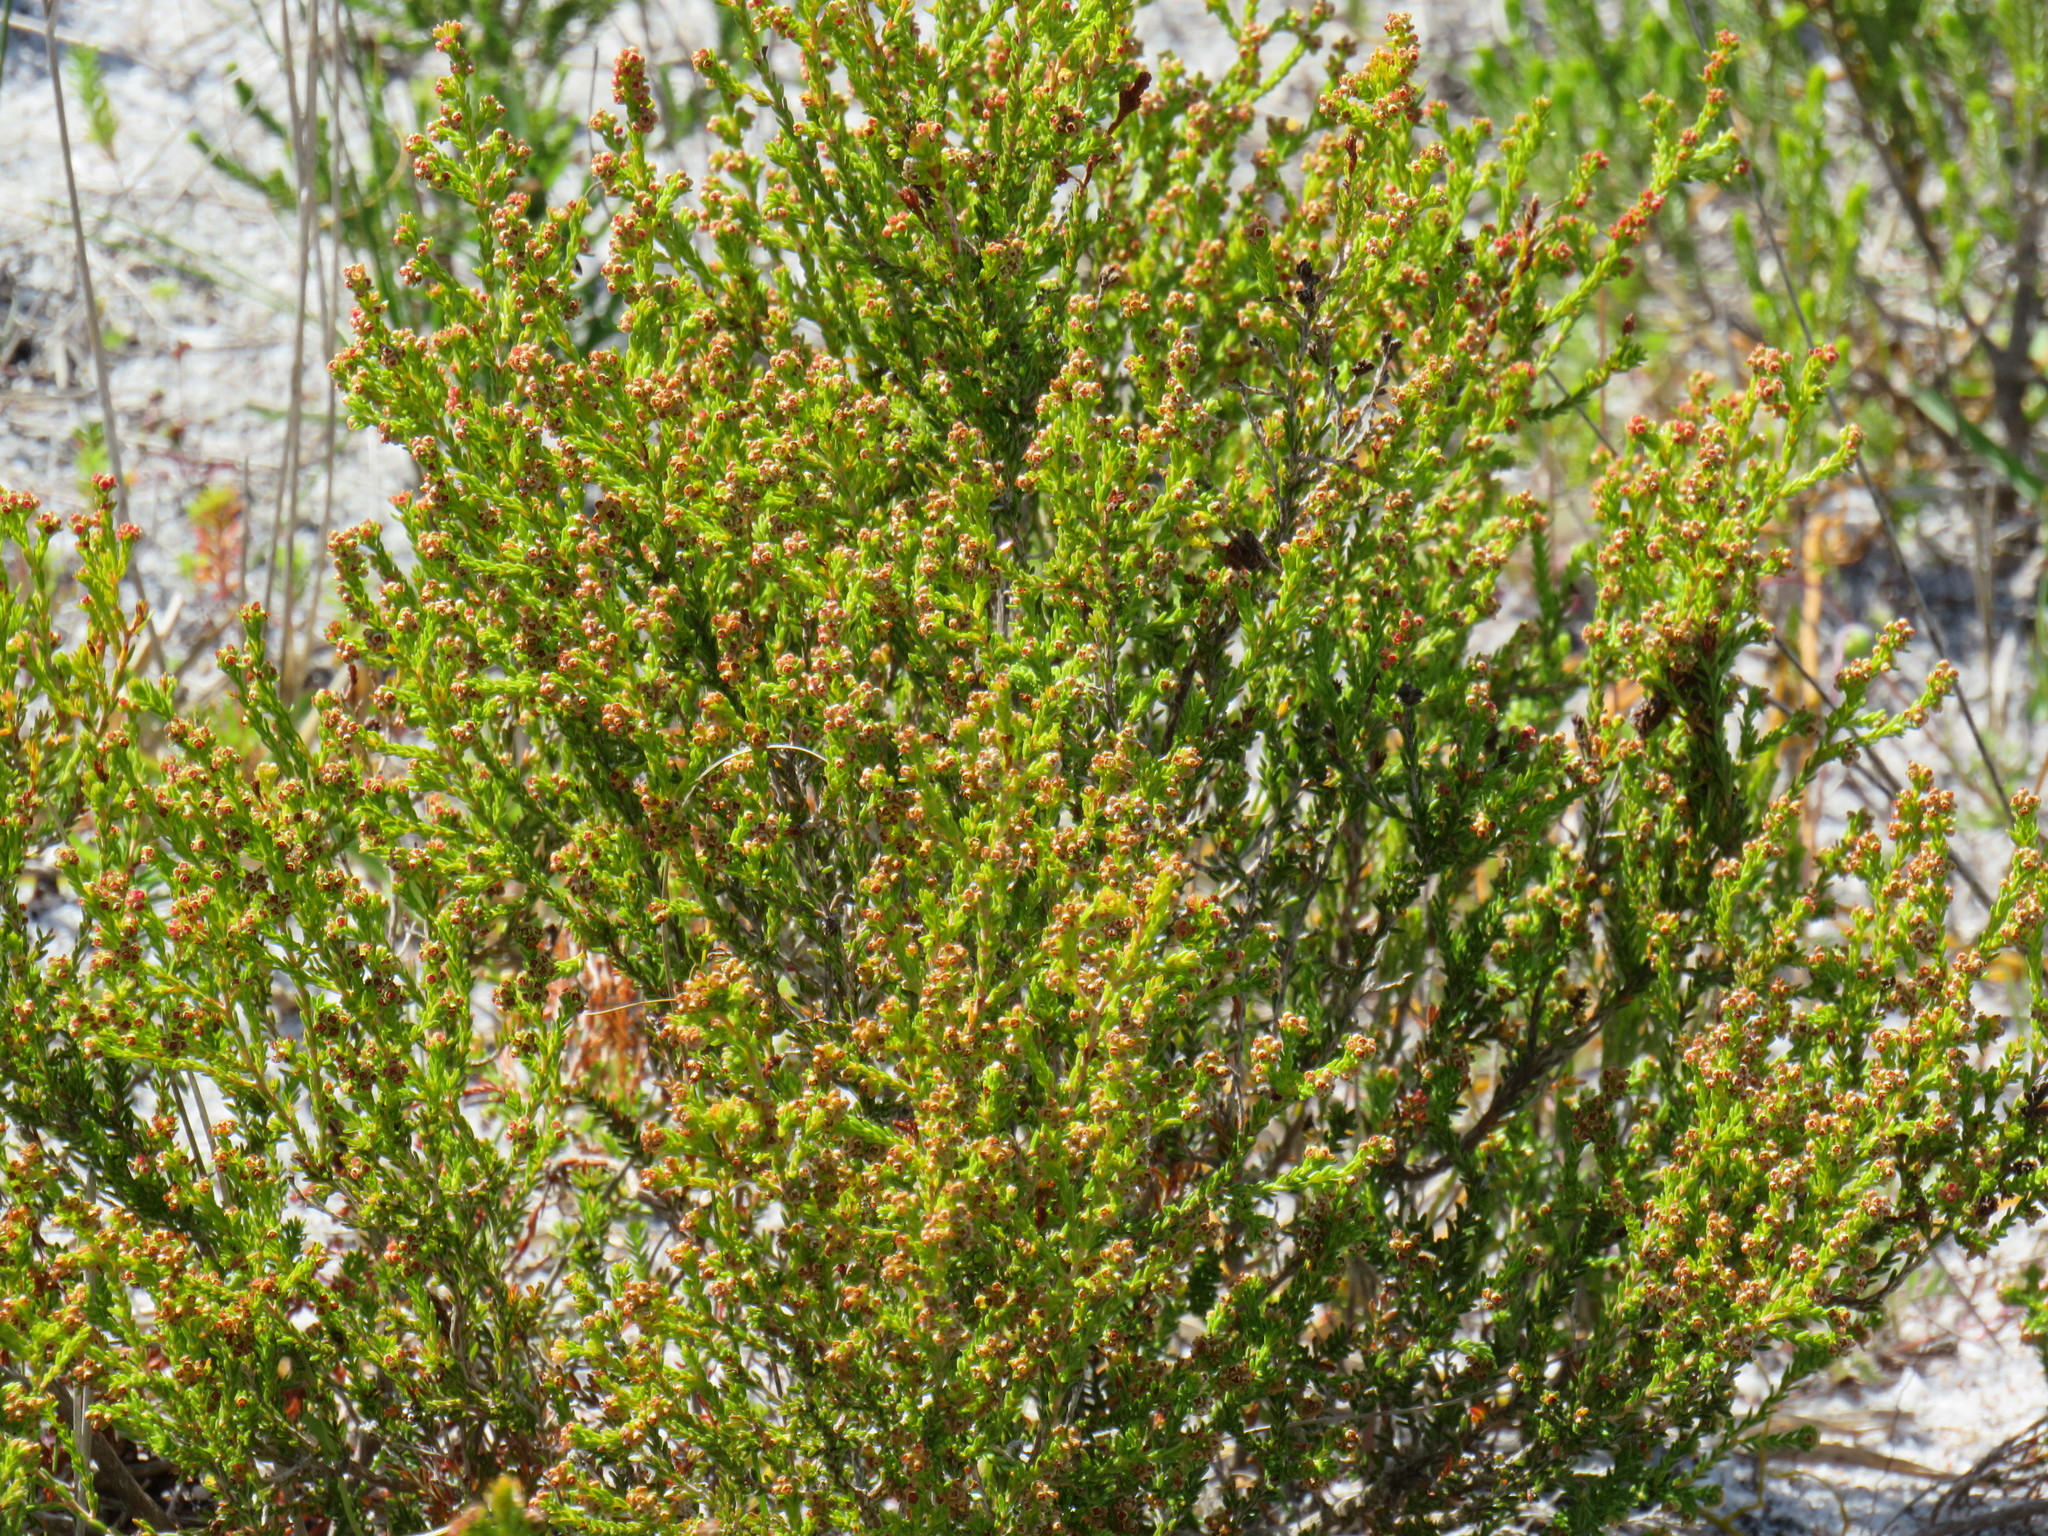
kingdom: Plantae
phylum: Tracheophyta
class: Magnoliopsida
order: Ericales
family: Ericaceae
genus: Erica
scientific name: Erica tristis
